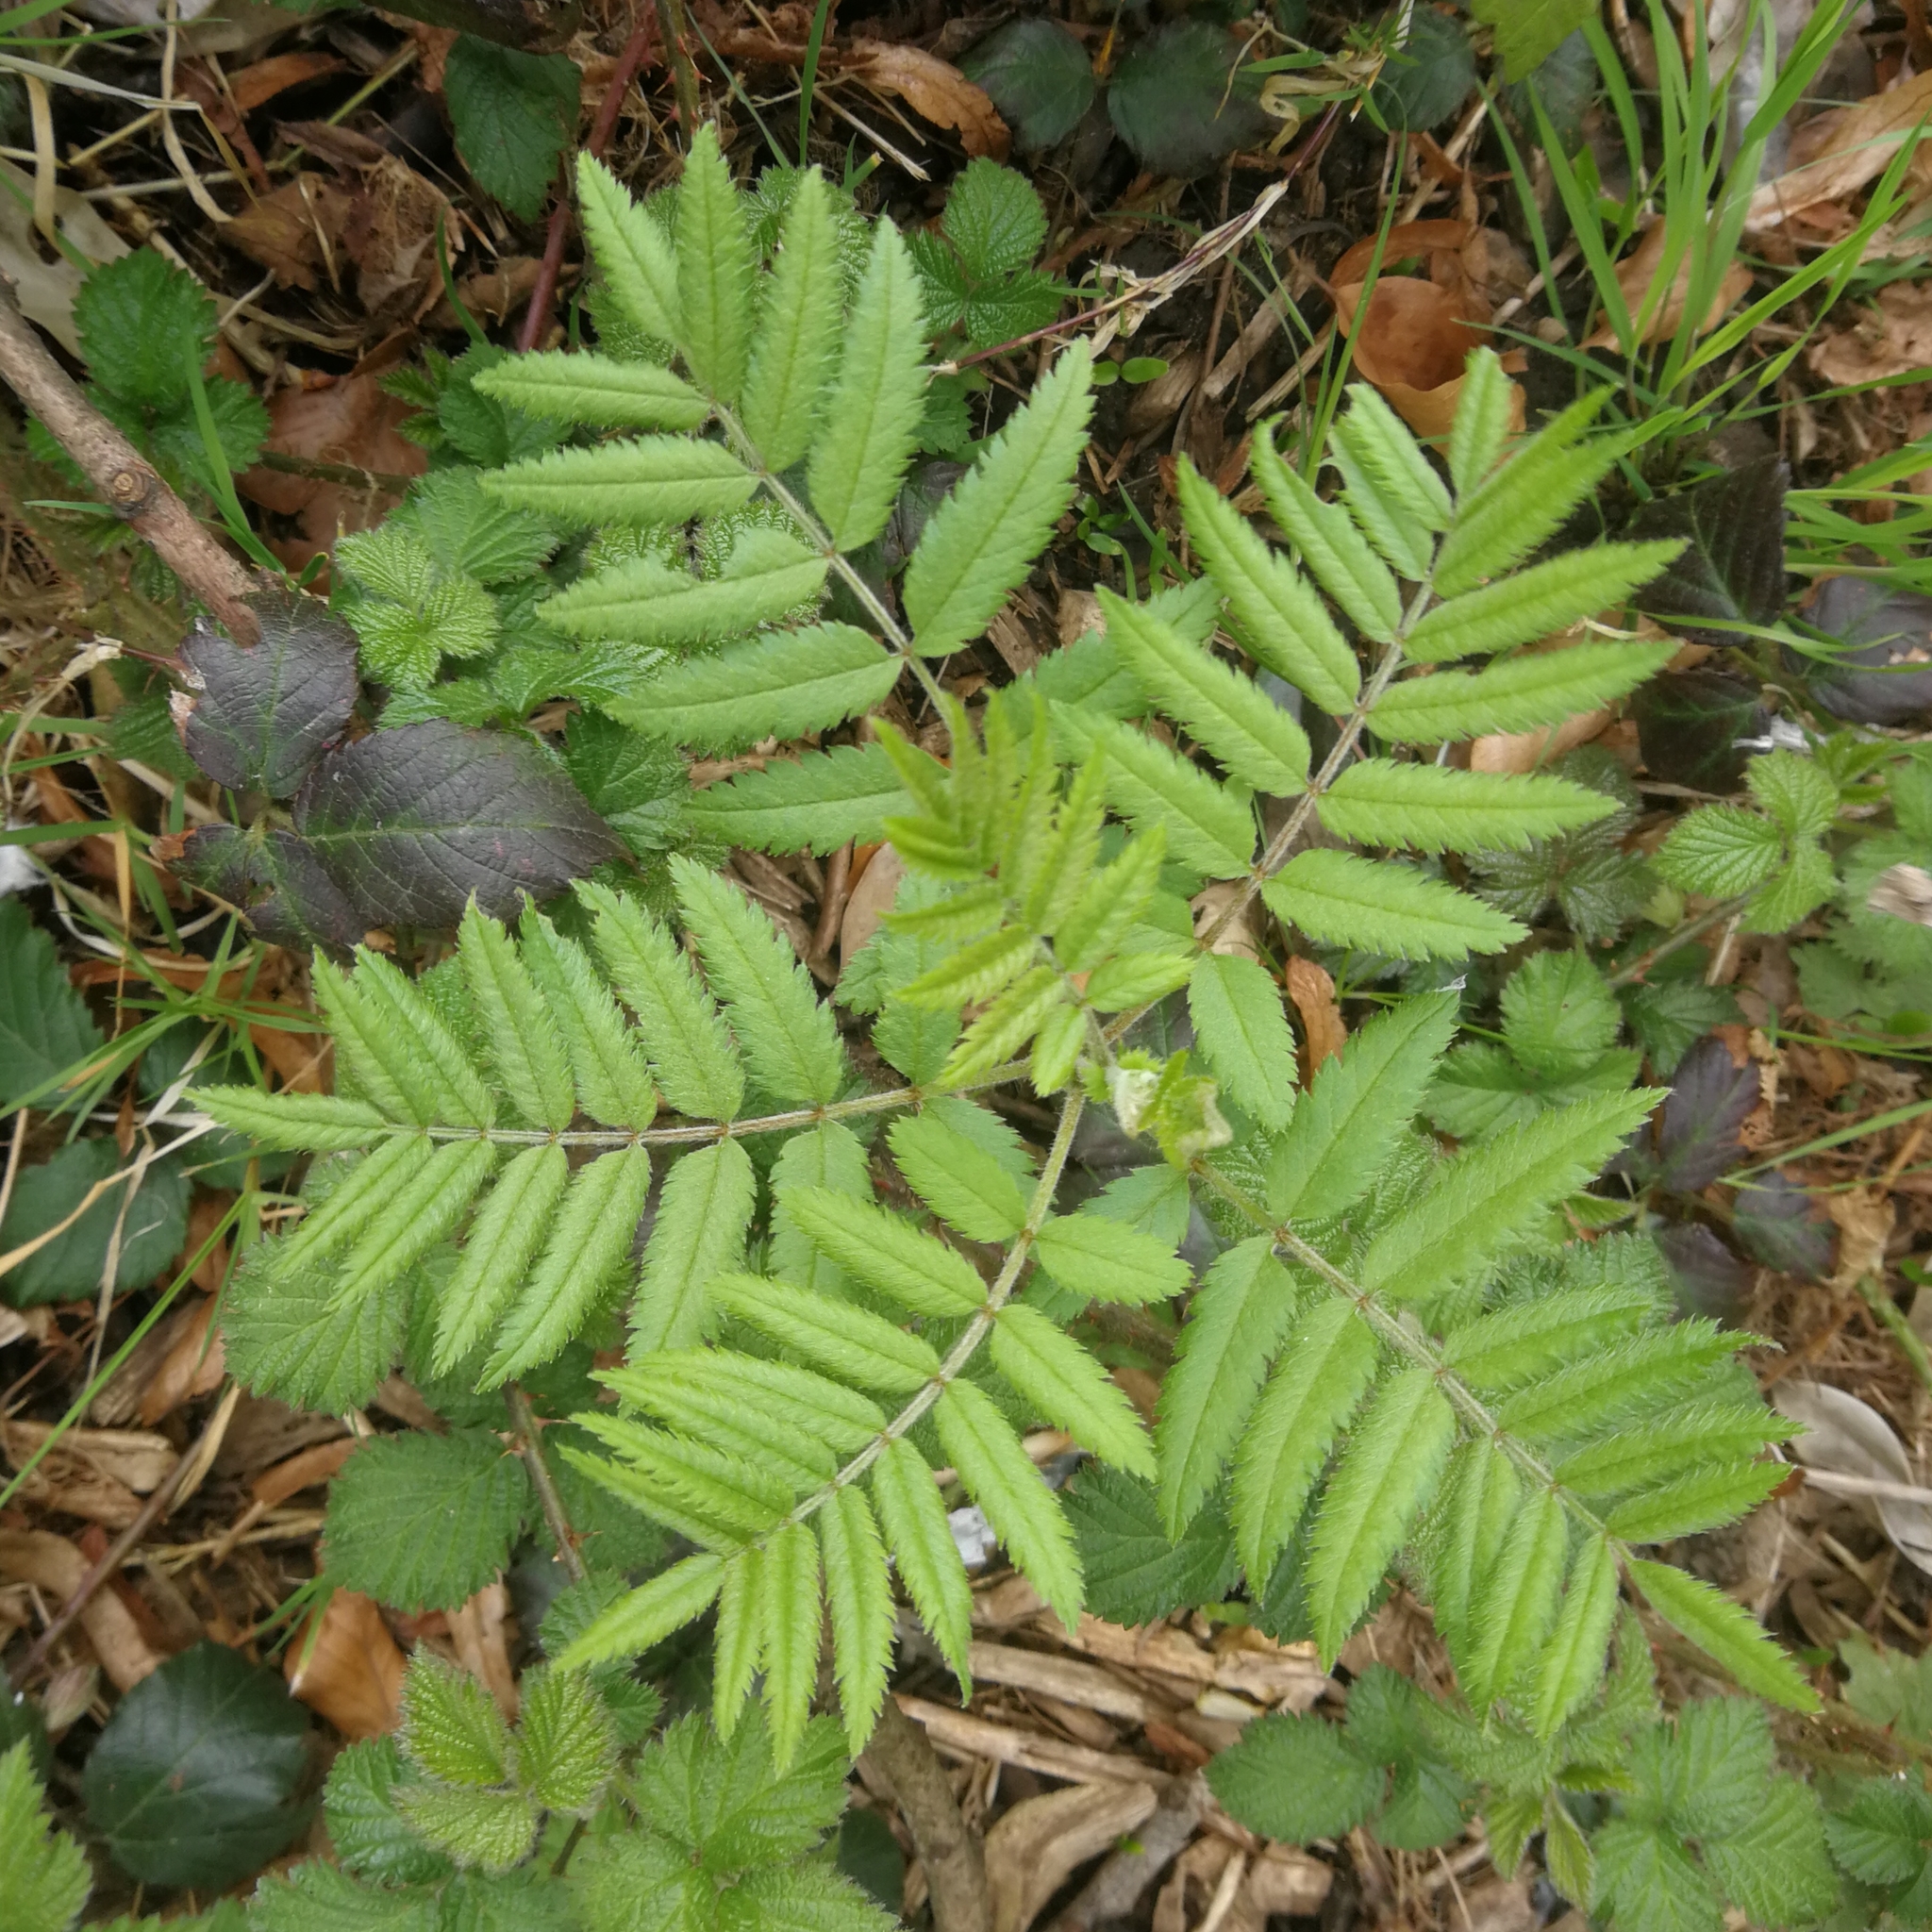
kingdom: Plantae
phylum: Tracheophyta
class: Magnoliopsida
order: Rosales
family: Rosaceae
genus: Sorbus
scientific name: Sorbus aucuparia
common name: Rowan
